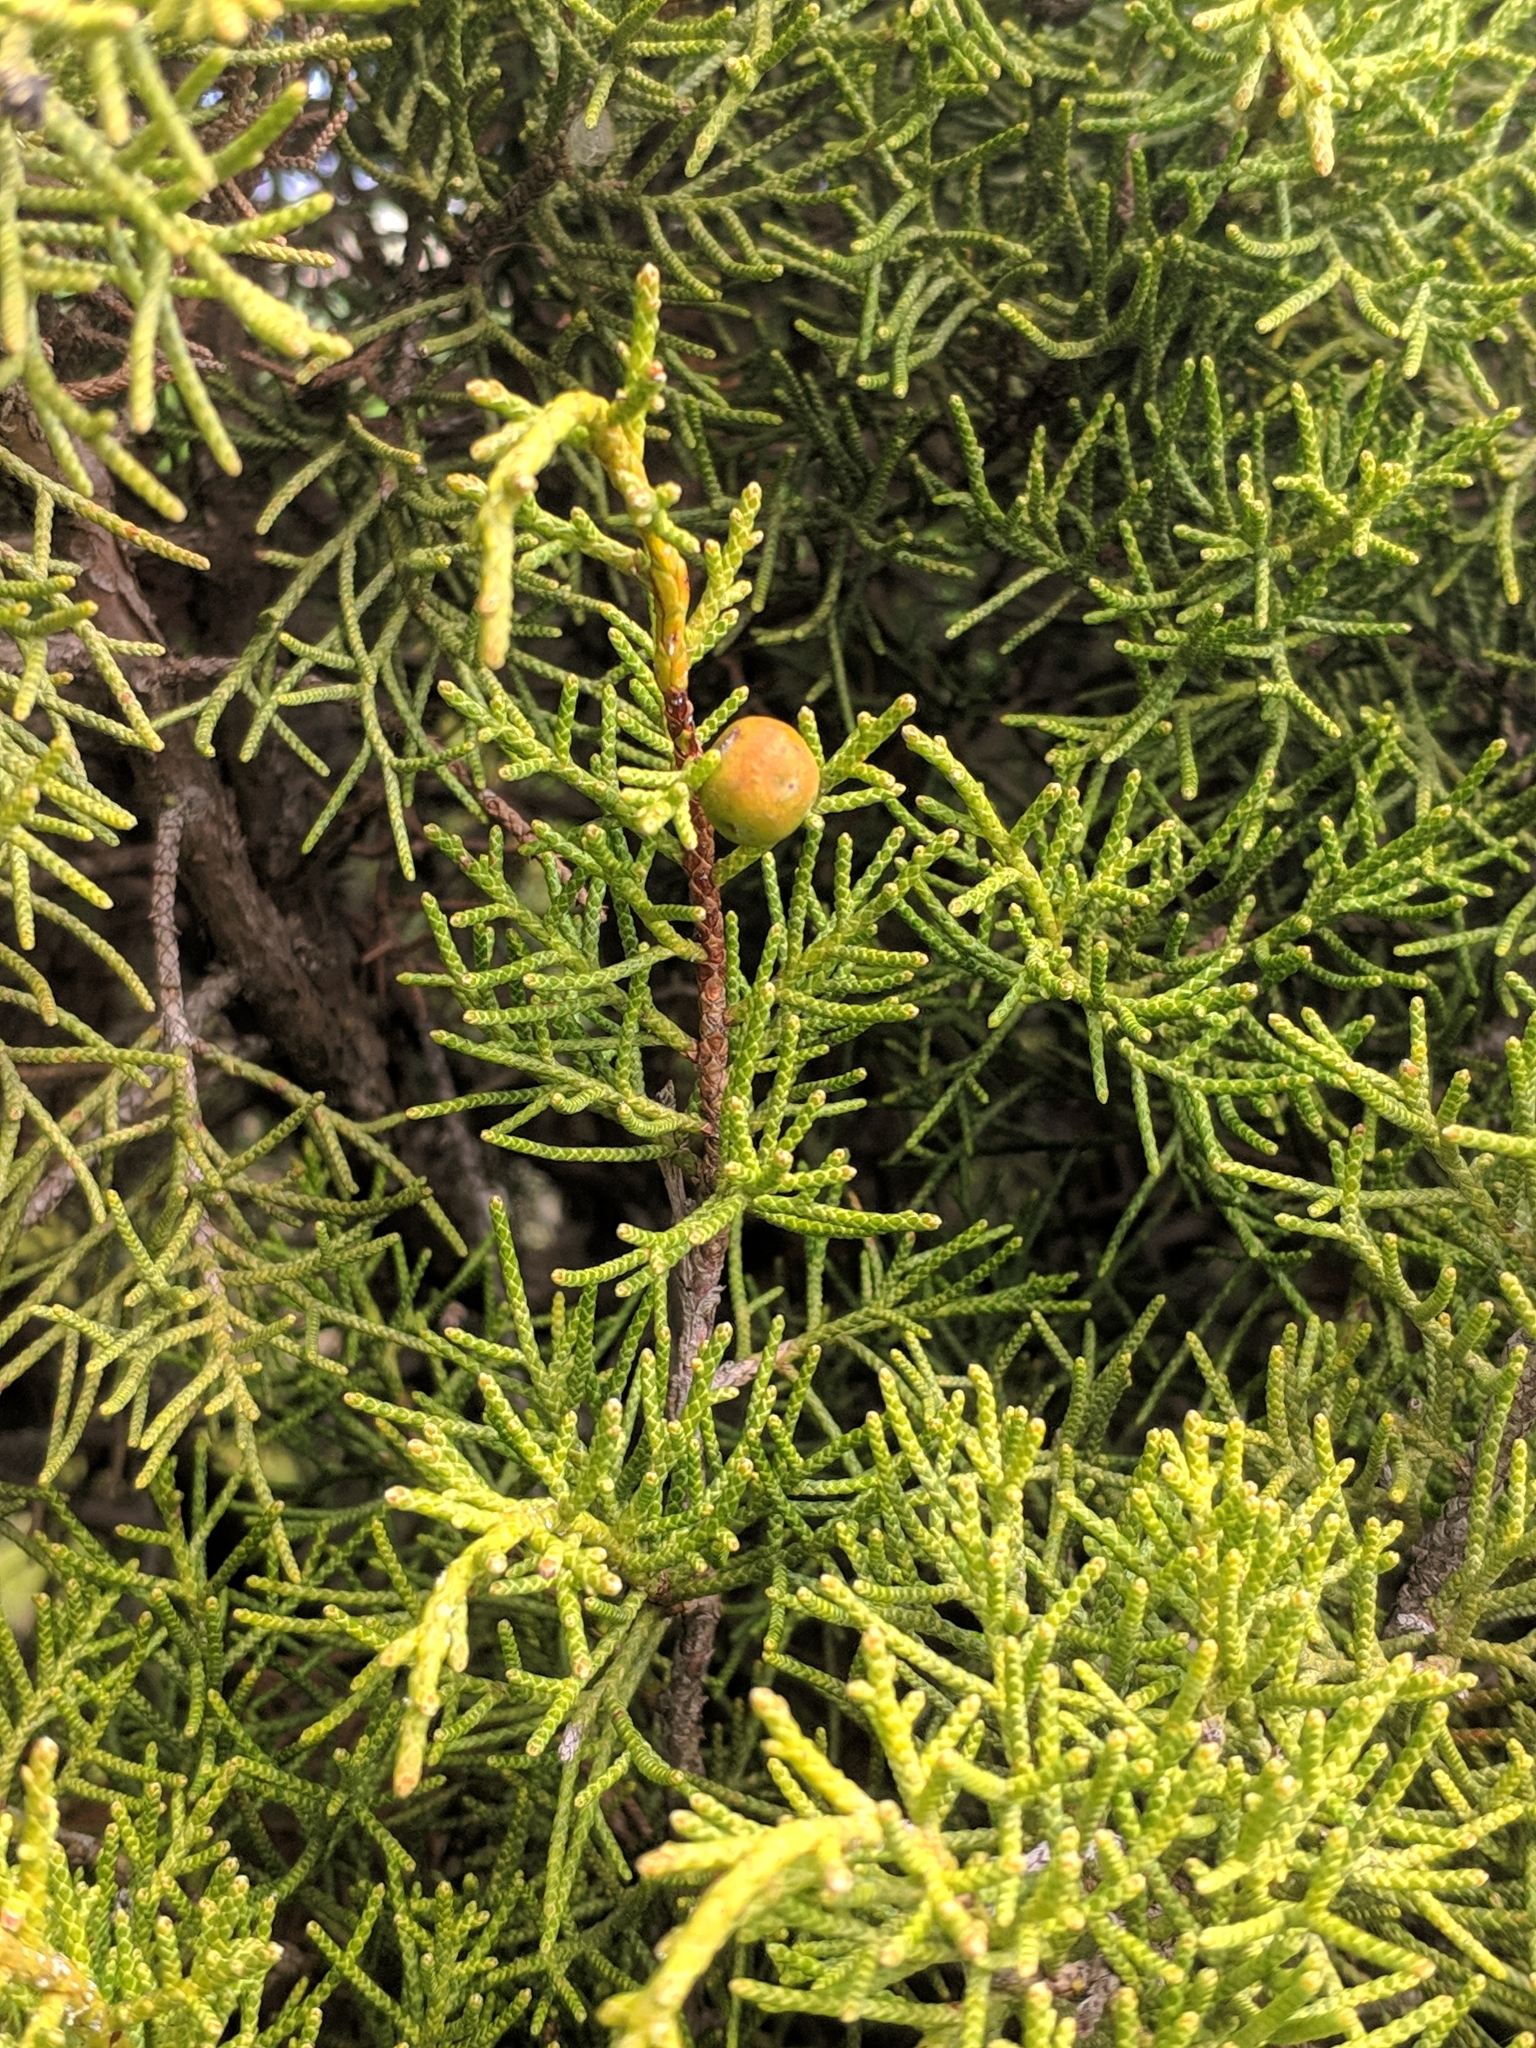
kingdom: Plantae
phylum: Tracheophyta
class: Pinopsida
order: Pinales
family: Cupressaceae
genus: Juniperus
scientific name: Juniperus phoenicea
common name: Phoenician juniper
